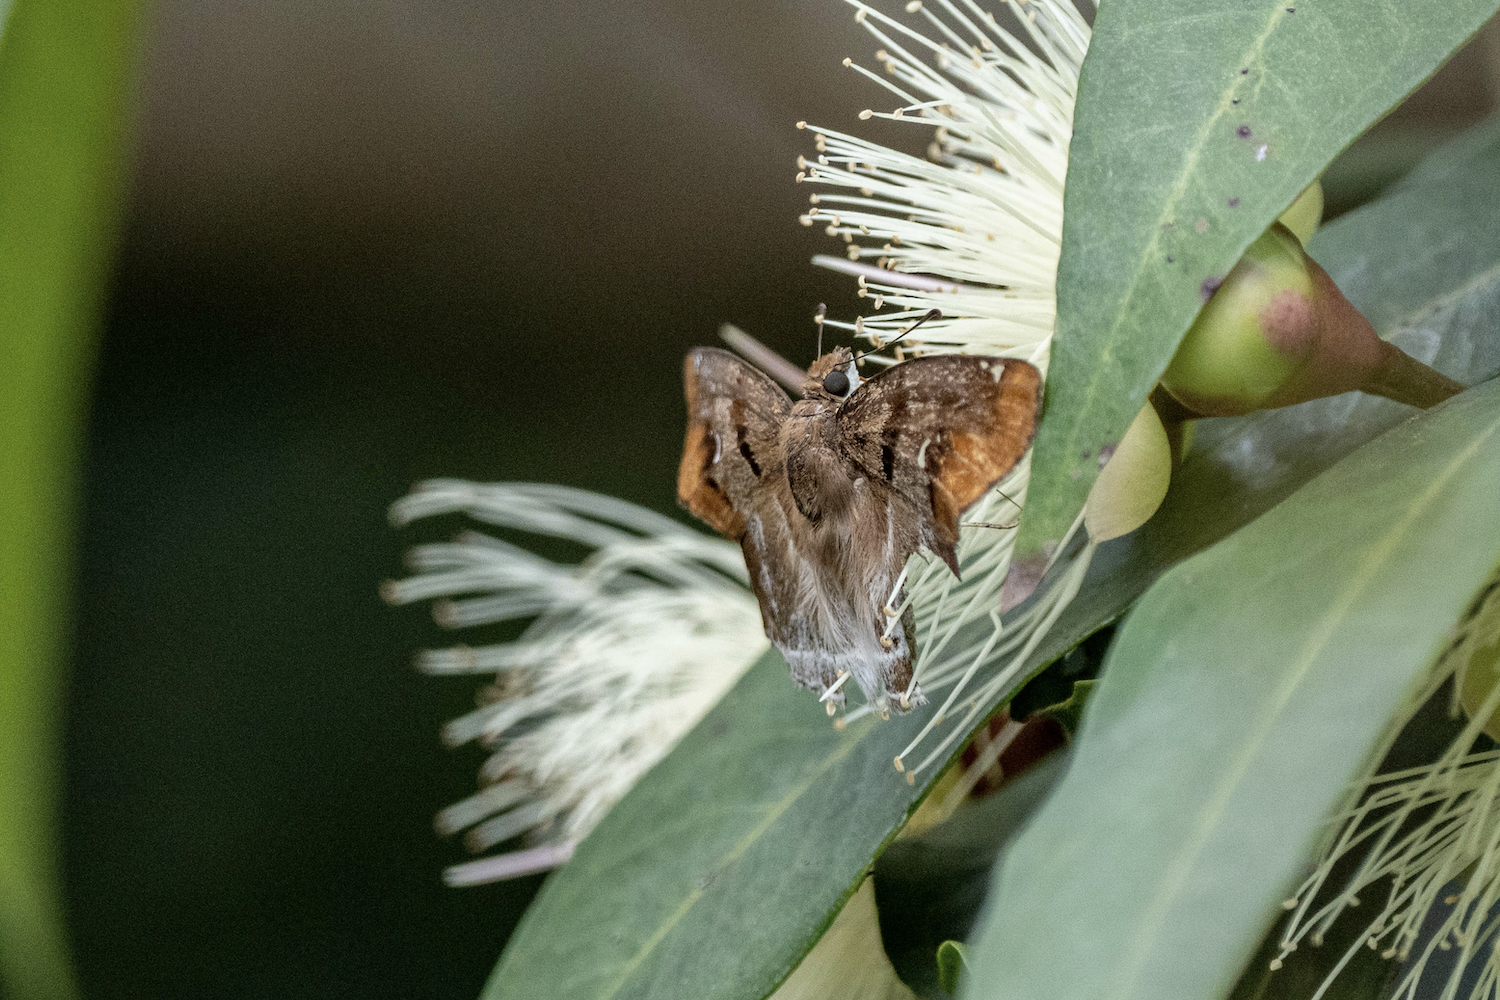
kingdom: Animalia
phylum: Arthropoda
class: Insecta
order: Lepidoptera
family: Hesperiidae
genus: Odontoptilum
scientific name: Odontoptilum angulata
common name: Chestnut banded angle
